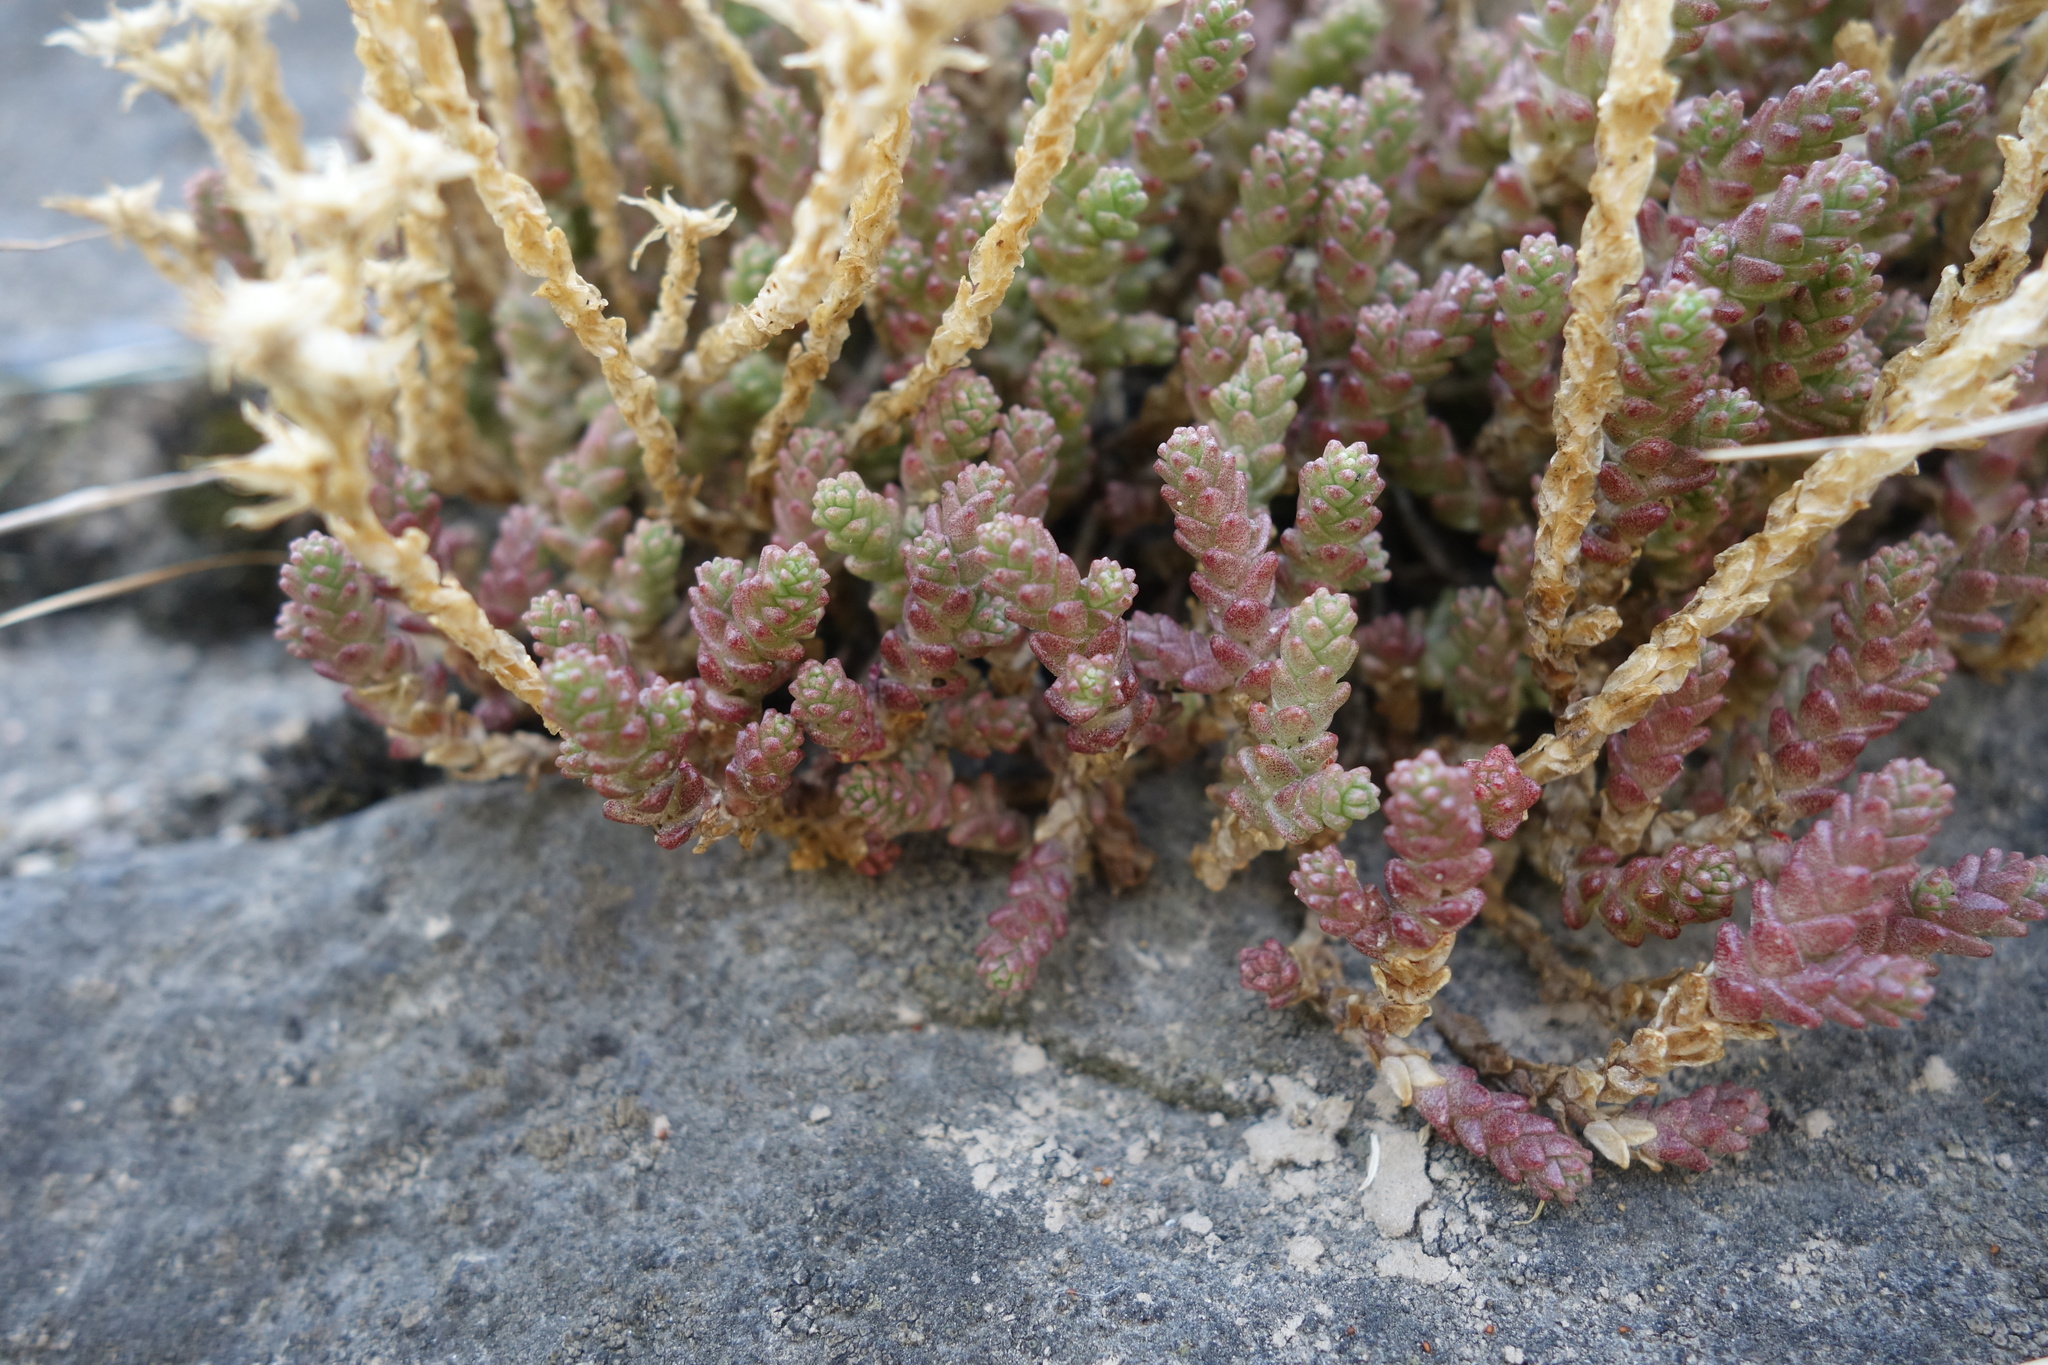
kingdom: Plantae
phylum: Tracheophyta
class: Magnoliopsida
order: Saxifragales
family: Crassulaceae
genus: Sedum
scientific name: Sedum acre
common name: Biting stonecrop
